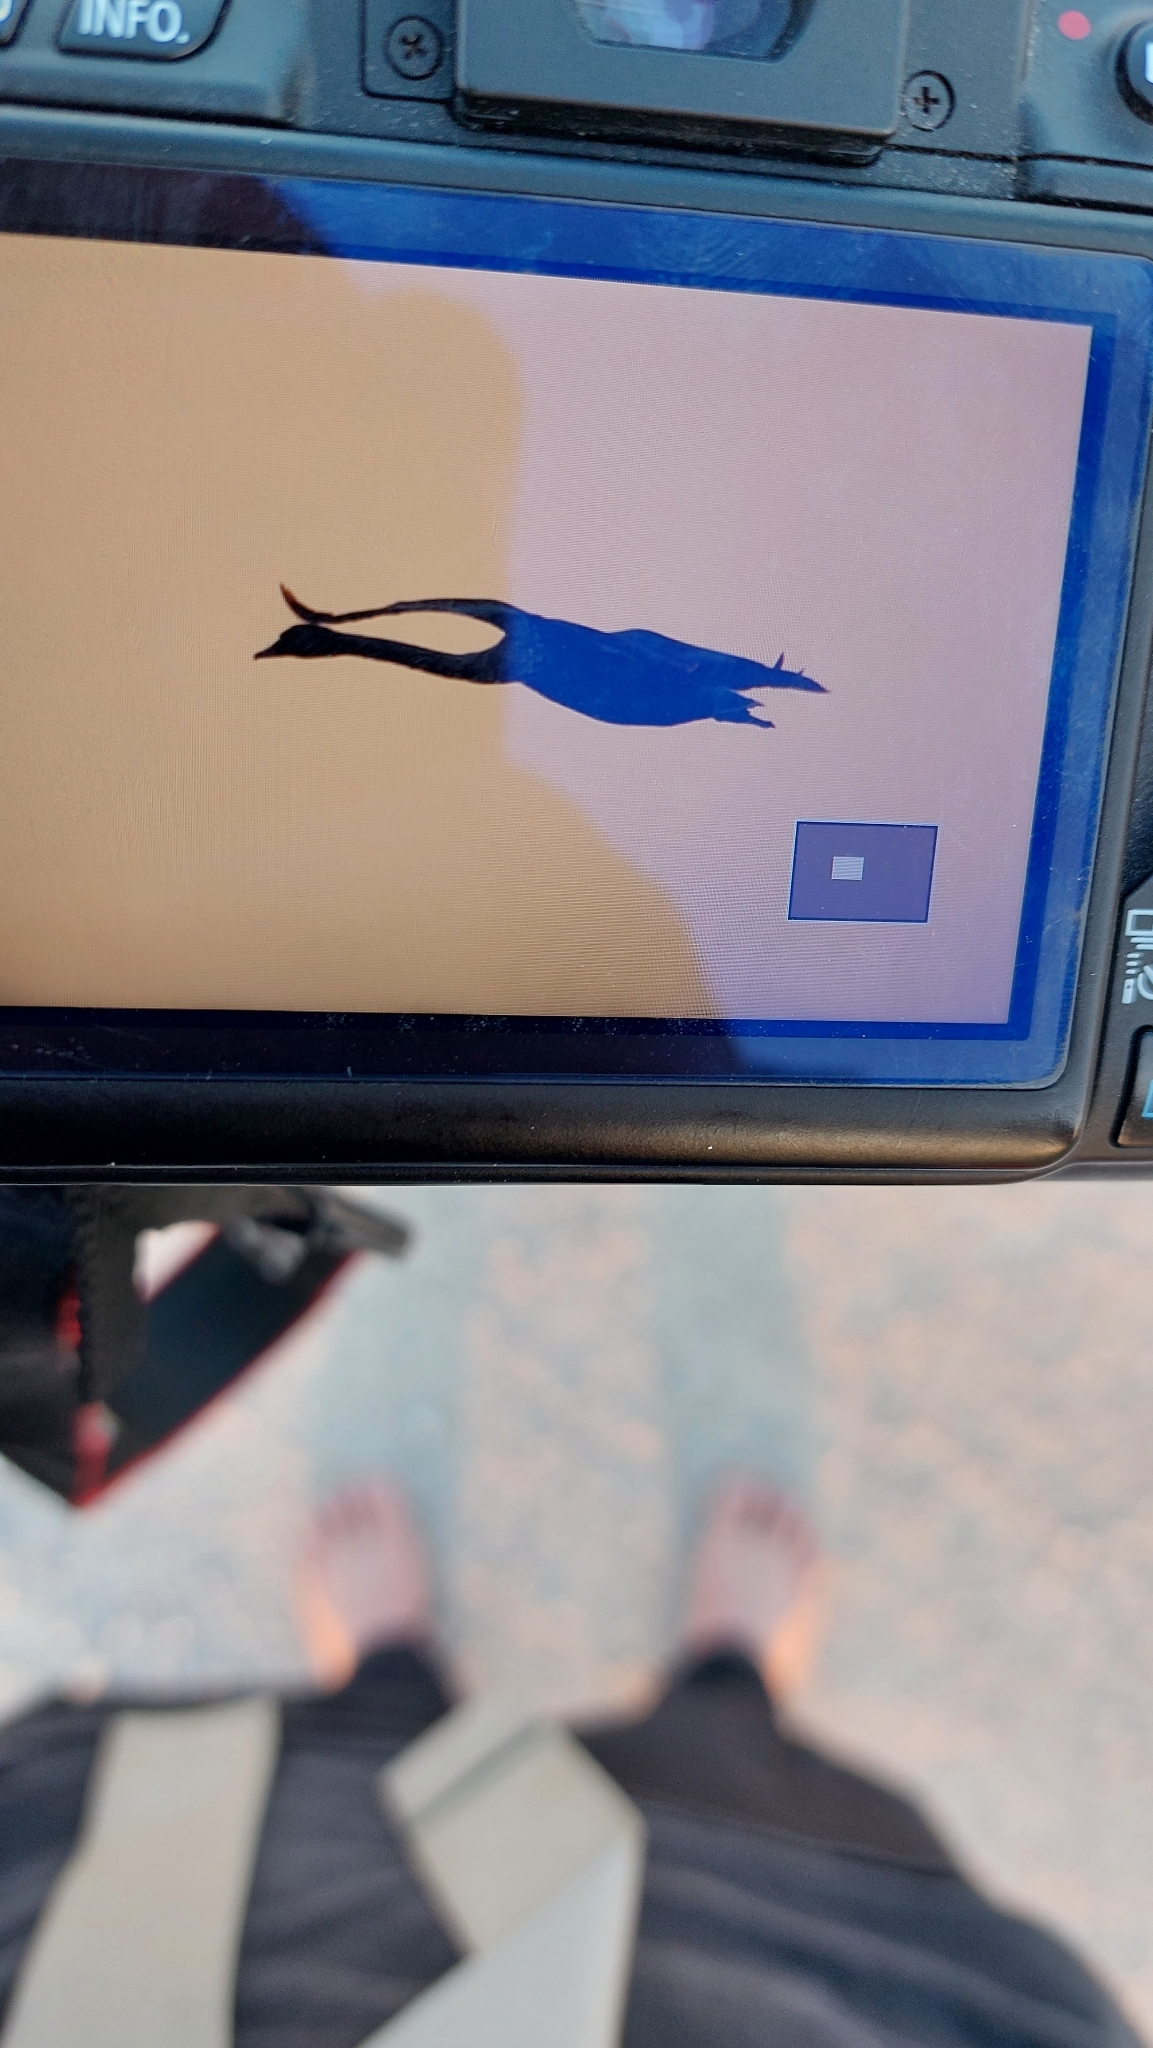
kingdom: Animalia
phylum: Chordata
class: Aves
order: Anseriformes
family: Anatidae
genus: Cygnus
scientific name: Cygnus olor
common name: Mute swan
